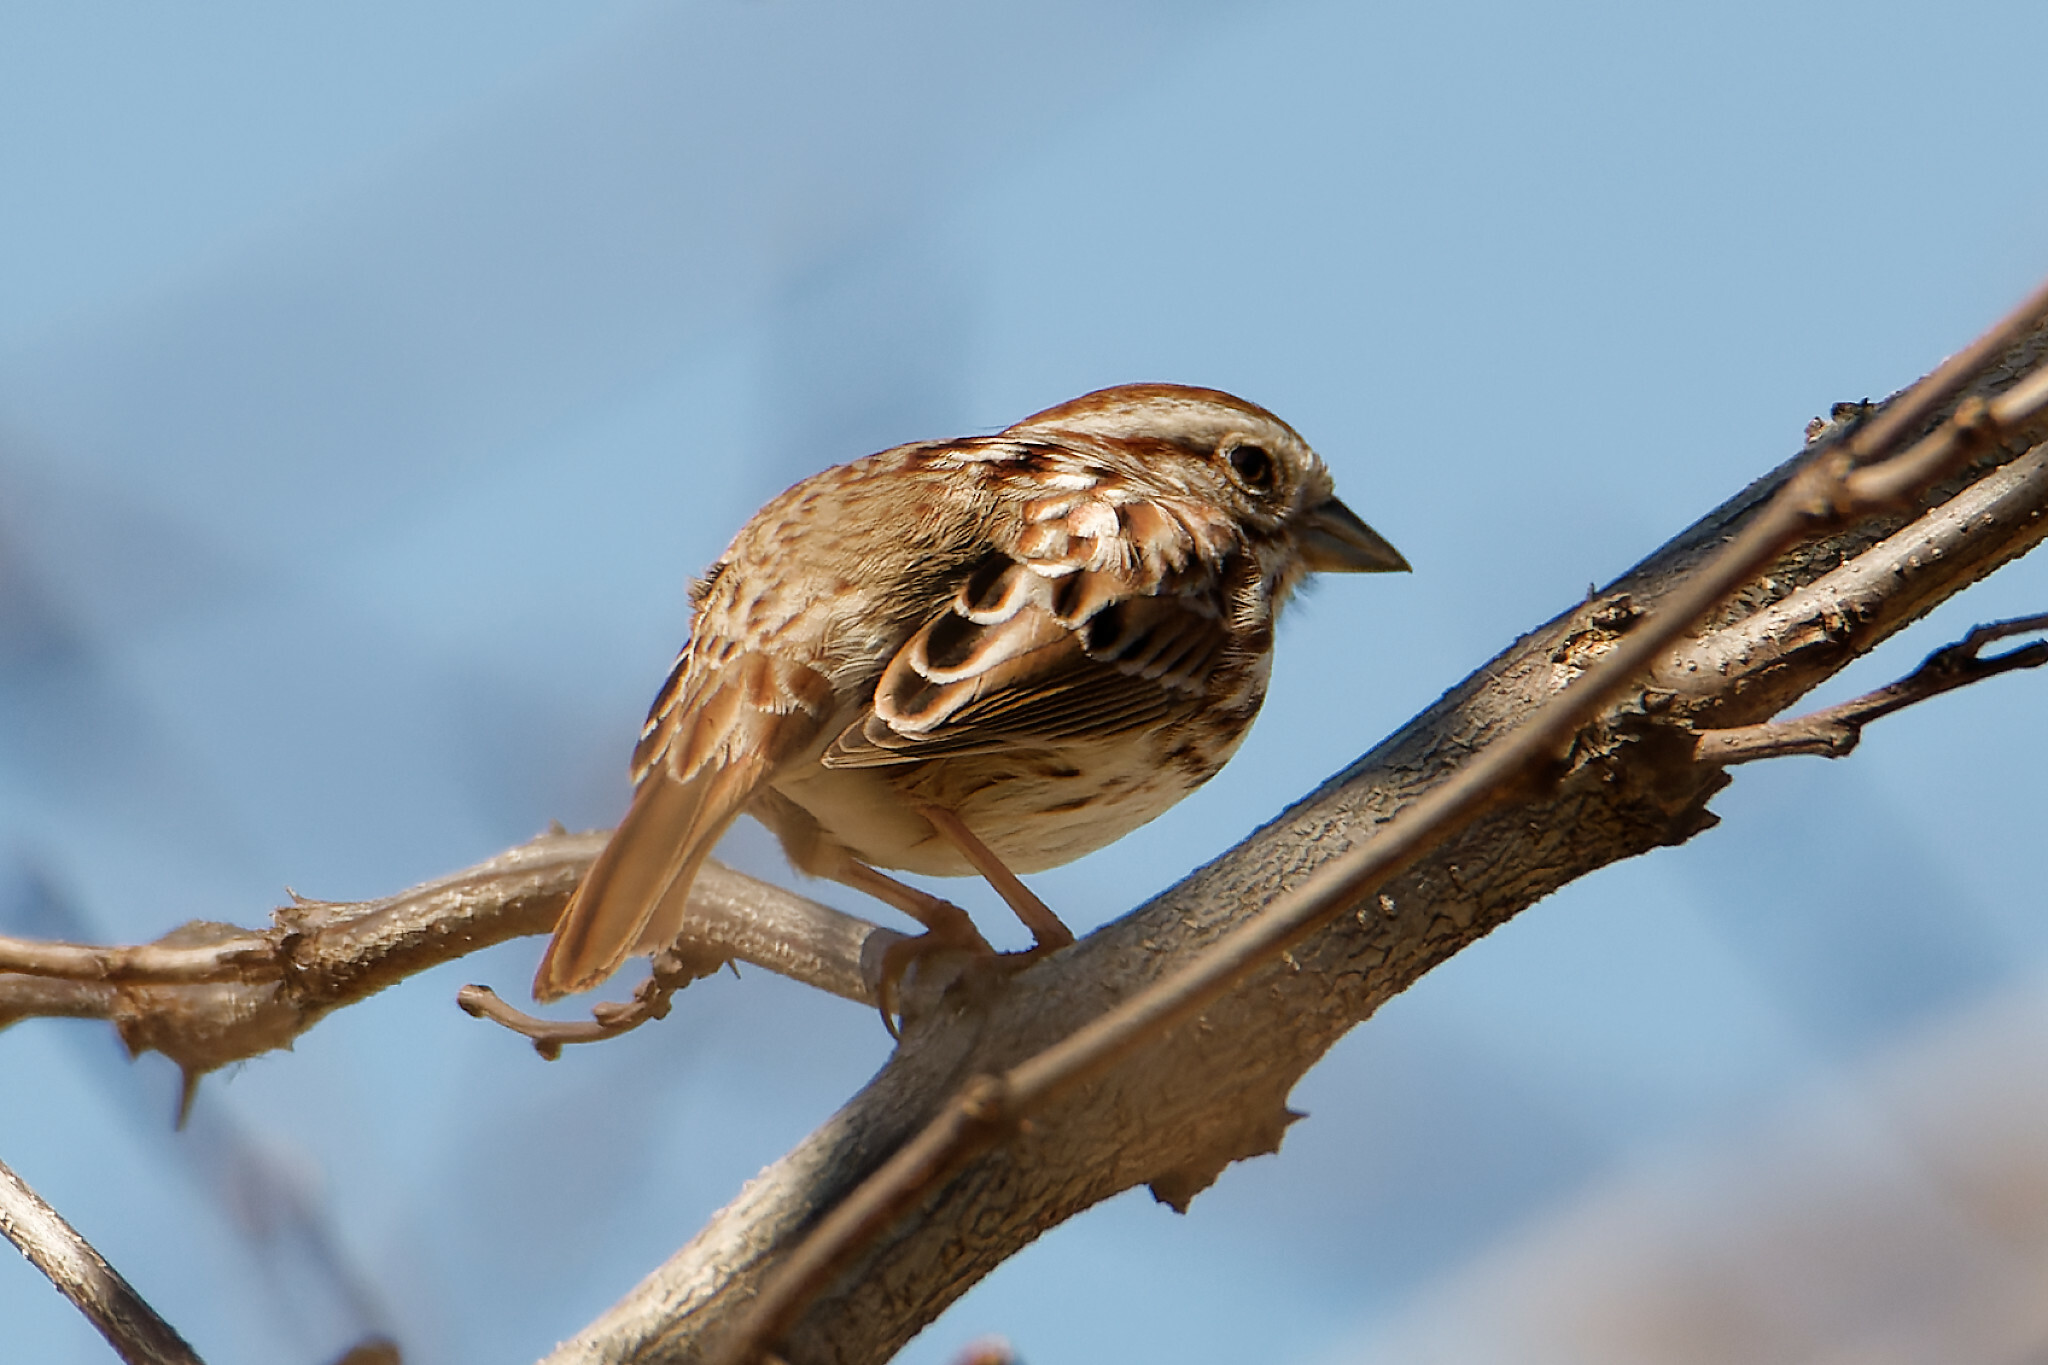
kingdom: Animalia
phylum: Chordata
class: Aves
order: Passeriformes
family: Passerellidae
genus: Melospiza
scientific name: Melospiza melodia
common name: Song sparrow
